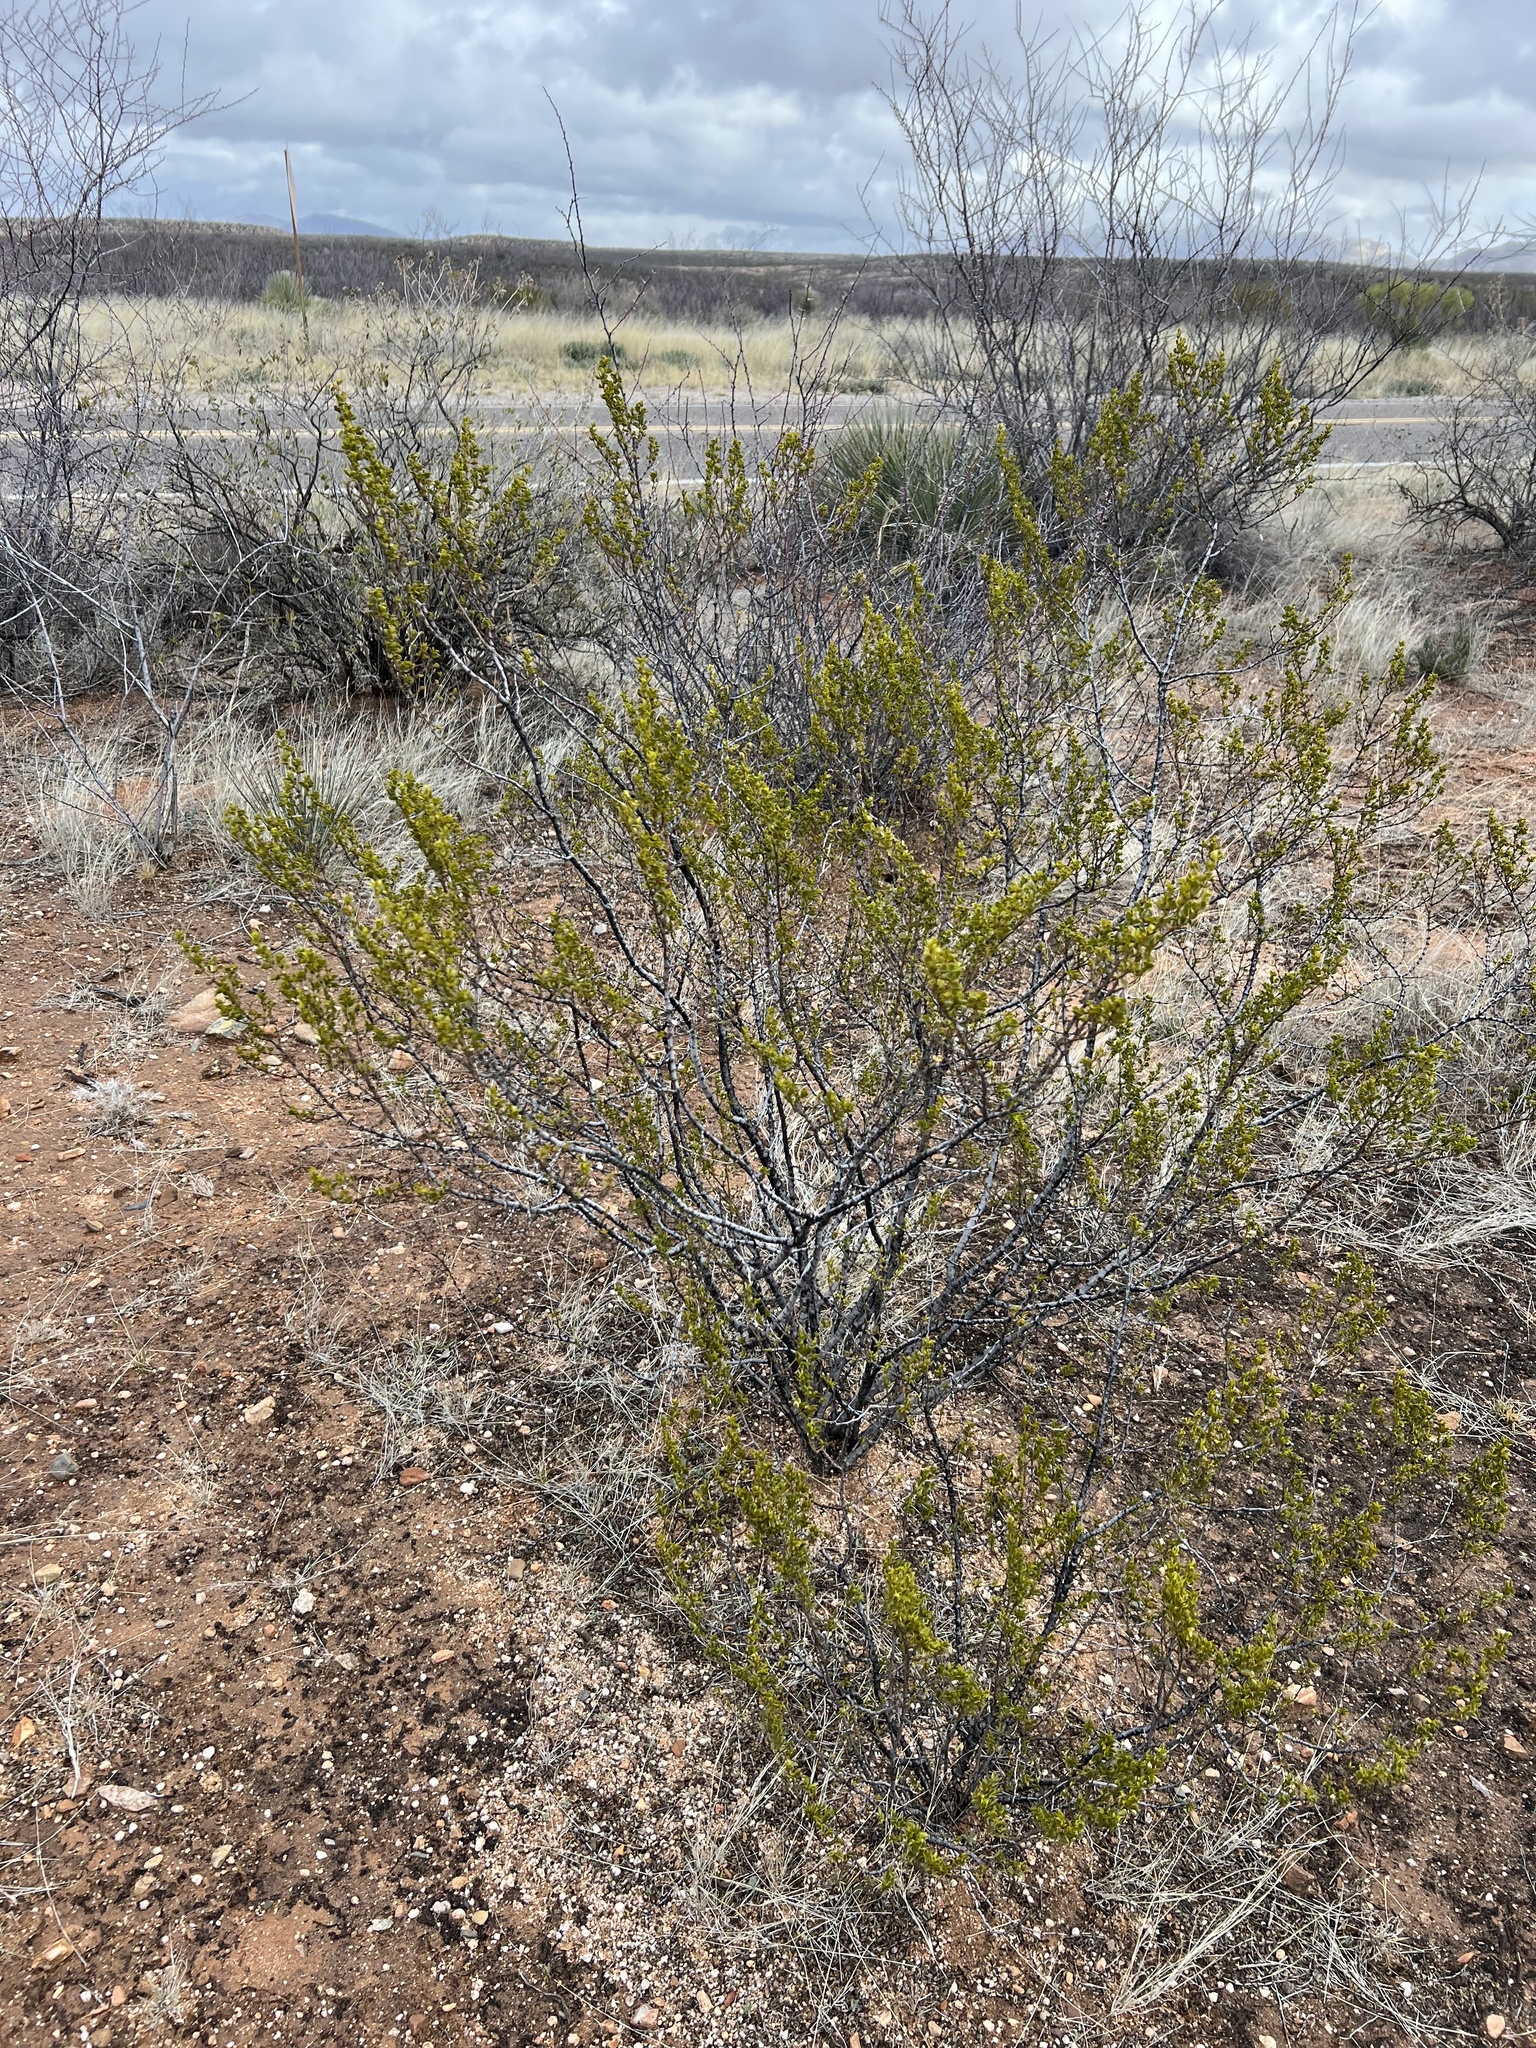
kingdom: Plantae
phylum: Tracheophyta
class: Magnoliopsida
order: Zygophyllales
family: Zygophyllaceae
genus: Larrea
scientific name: Larrea tridentata
